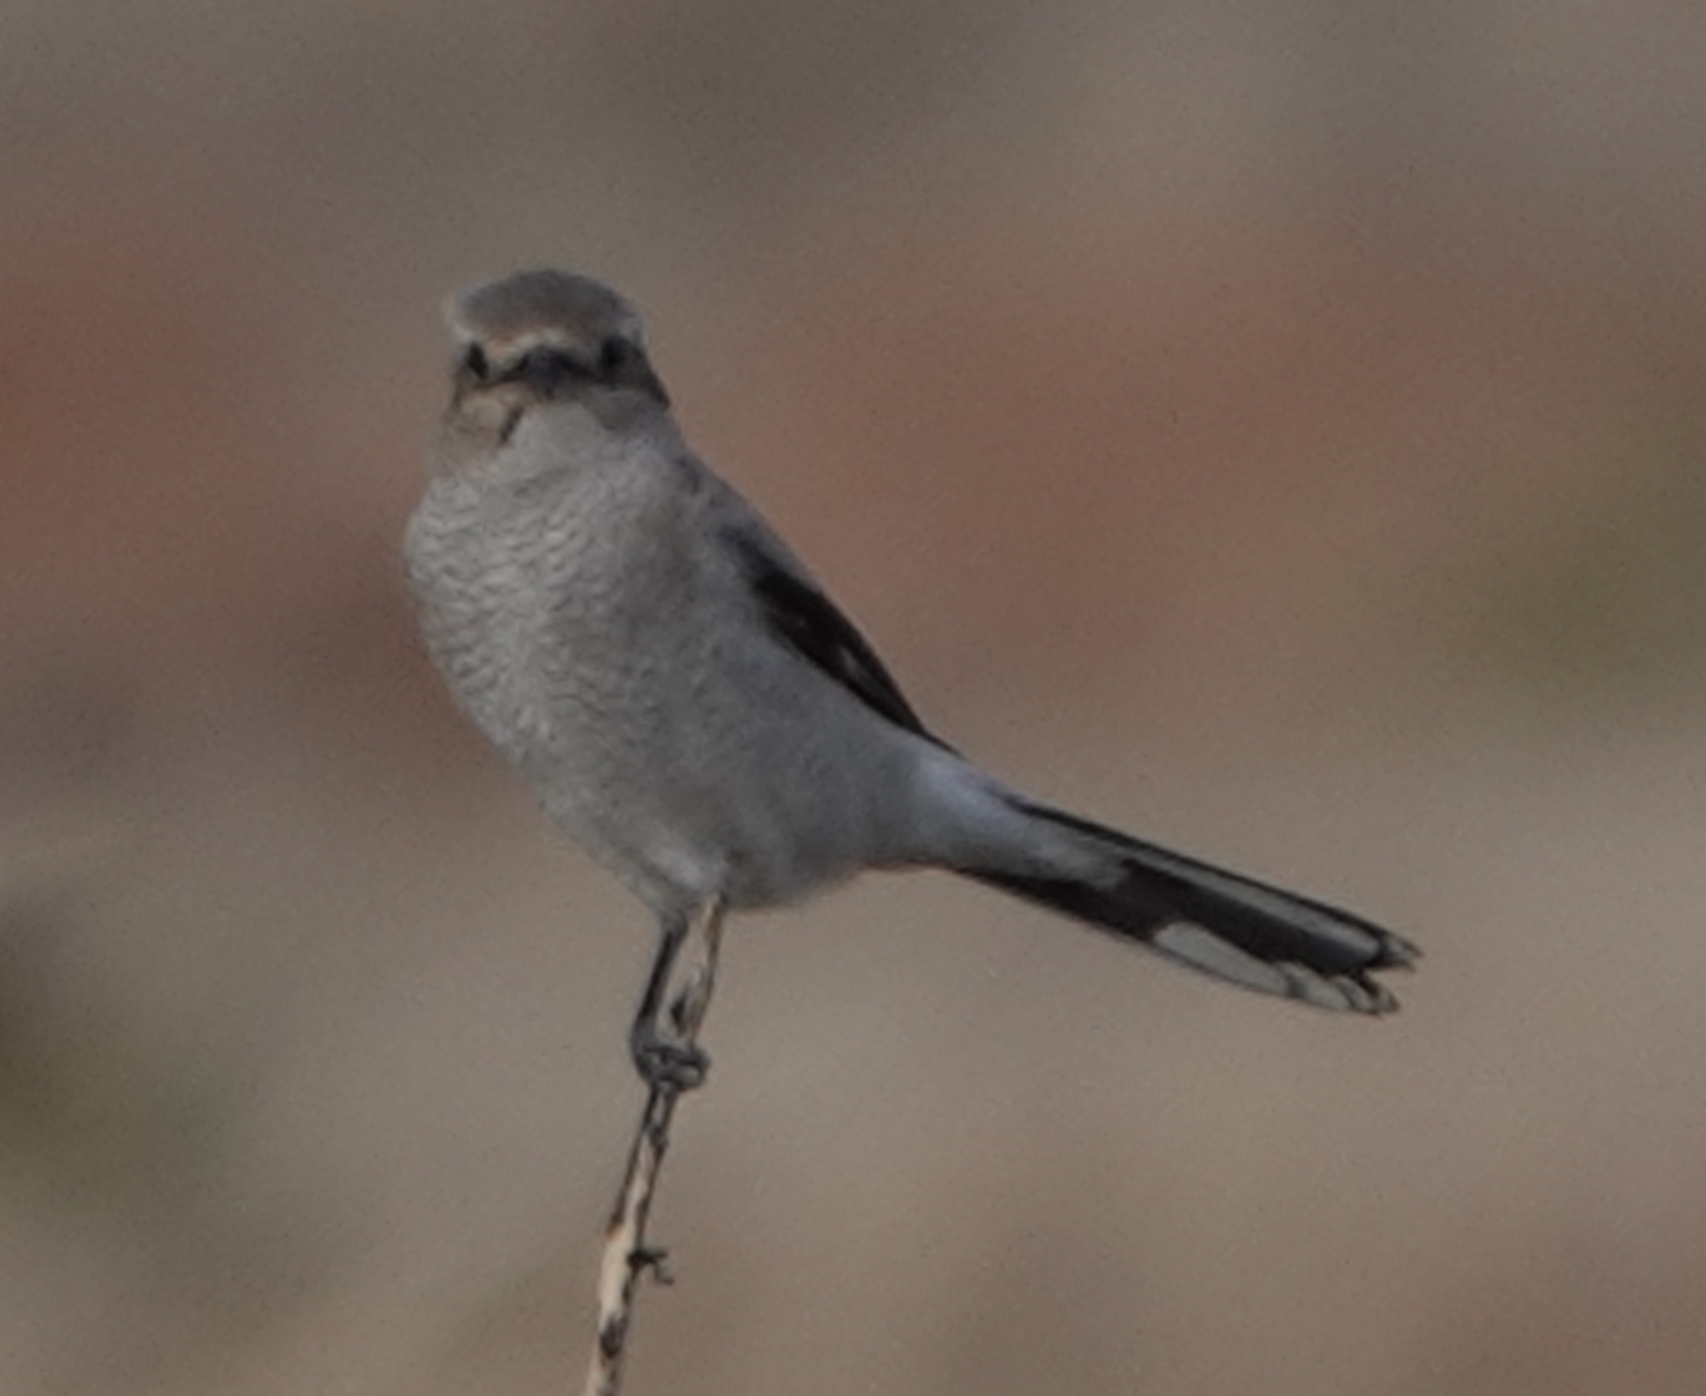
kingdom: Animalia
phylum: Chordata
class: Aves
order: Passeriformes
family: Laniidae
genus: Lanius
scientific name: Lanius borealis
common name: Northern shrike
